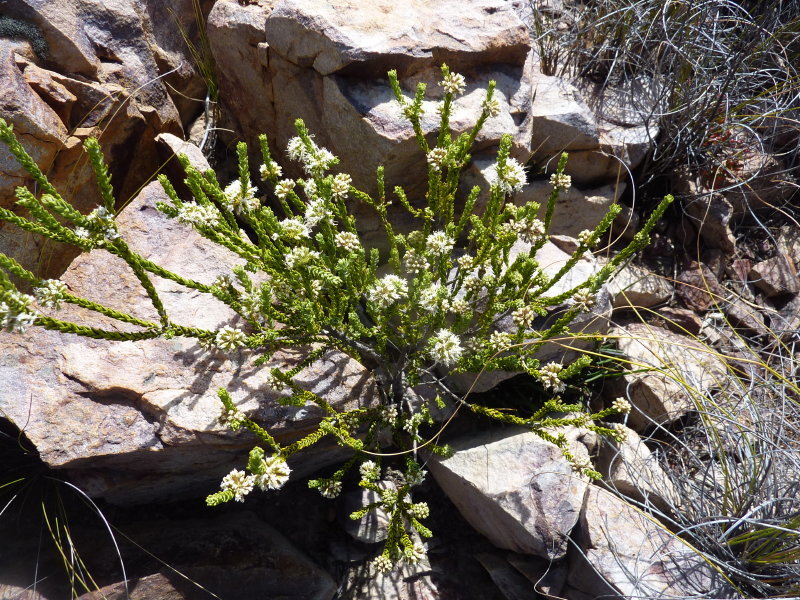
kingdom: Plantae
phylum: Tracheophyta
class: Magnoliopsida
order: Sapindales
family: Rutaceae
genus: Agathosma
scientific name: Agathosma roodebergensis
